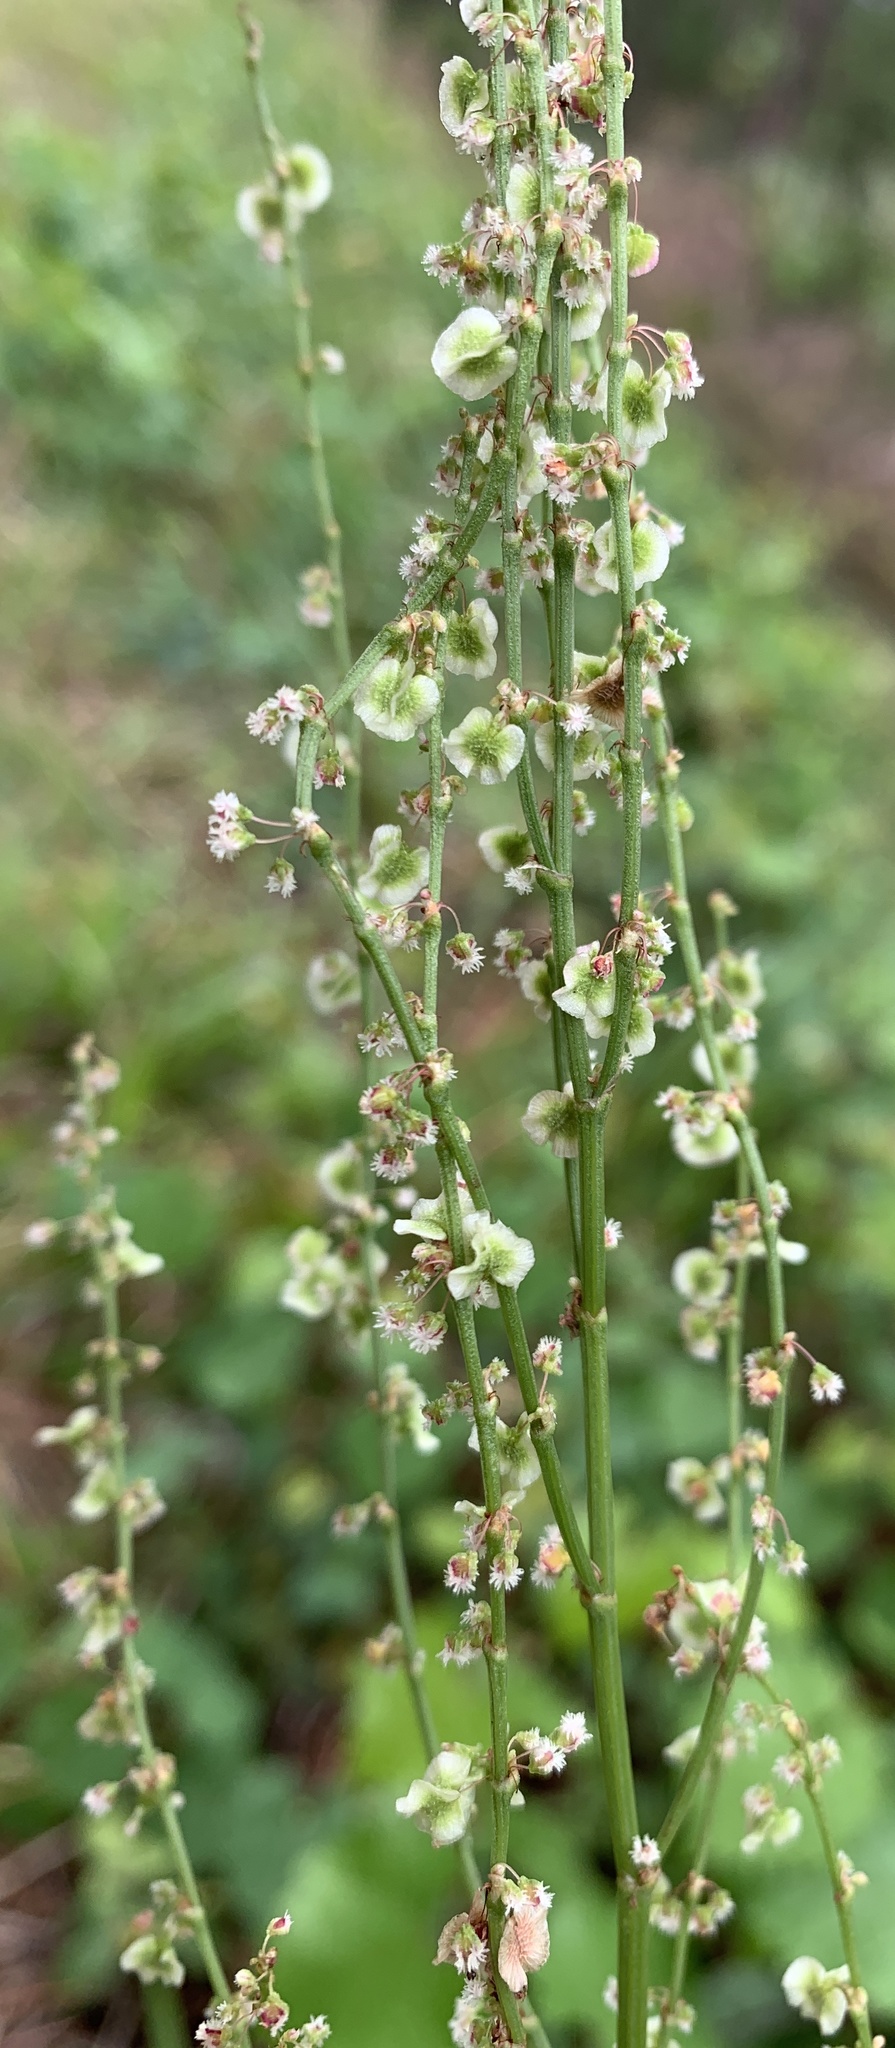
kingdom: Plantae
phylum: Tracheophyta
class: Magnoliopsida
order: Caryophyllales
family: Polygonaceae
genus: Rumex
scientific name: Rumex hastatulus
